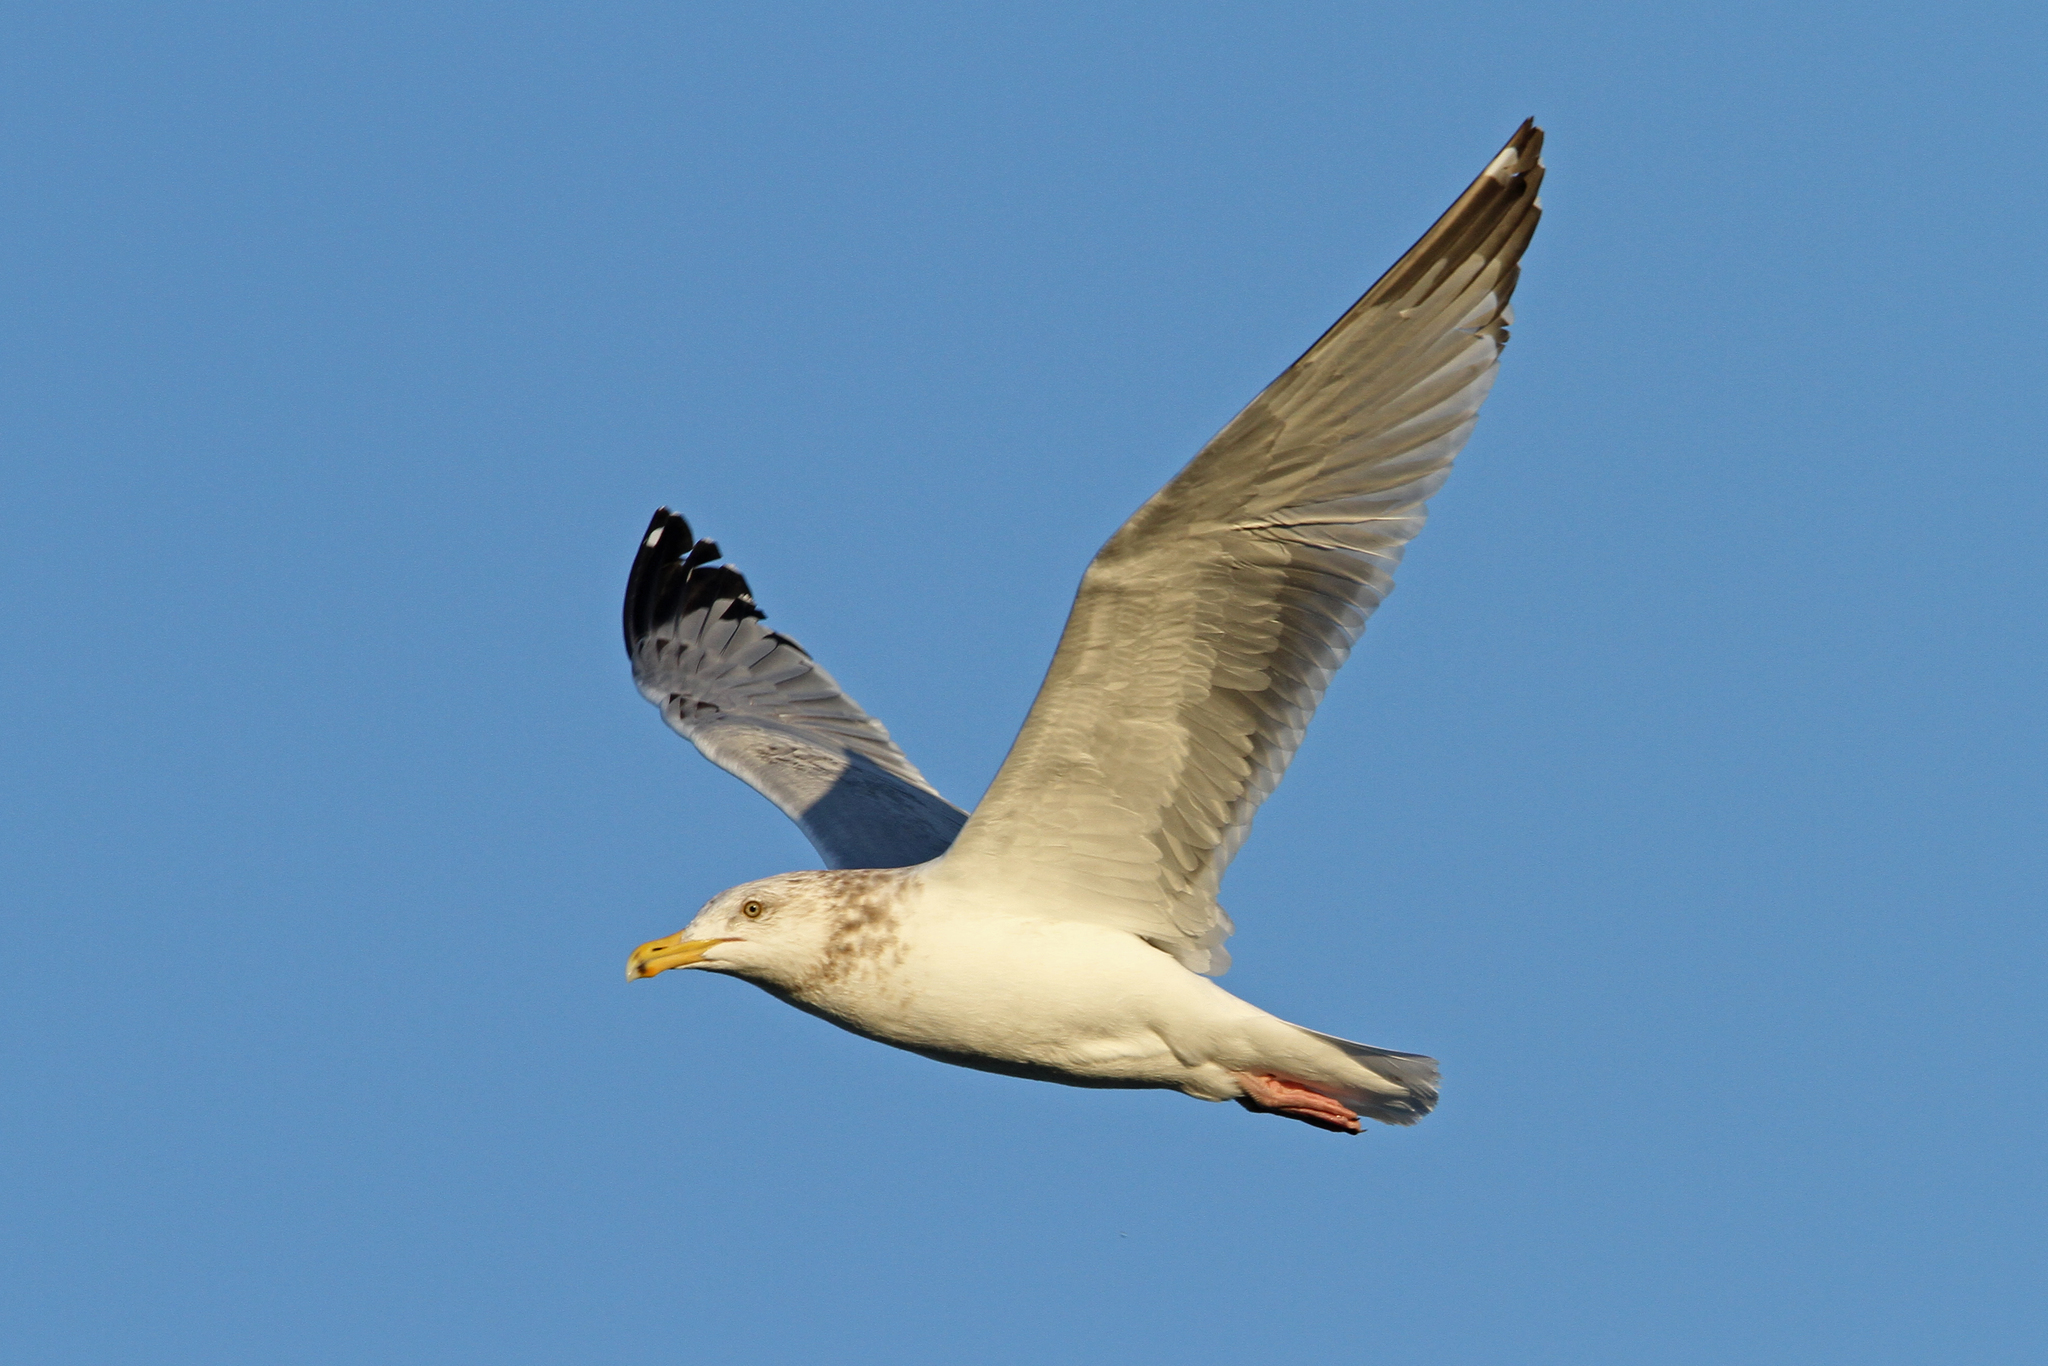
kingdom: Animalia
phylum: Chordata
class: Aves
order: Charadriiformes
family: Laridae
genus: Larus
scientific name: Larus argentatus
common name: Herring gull
